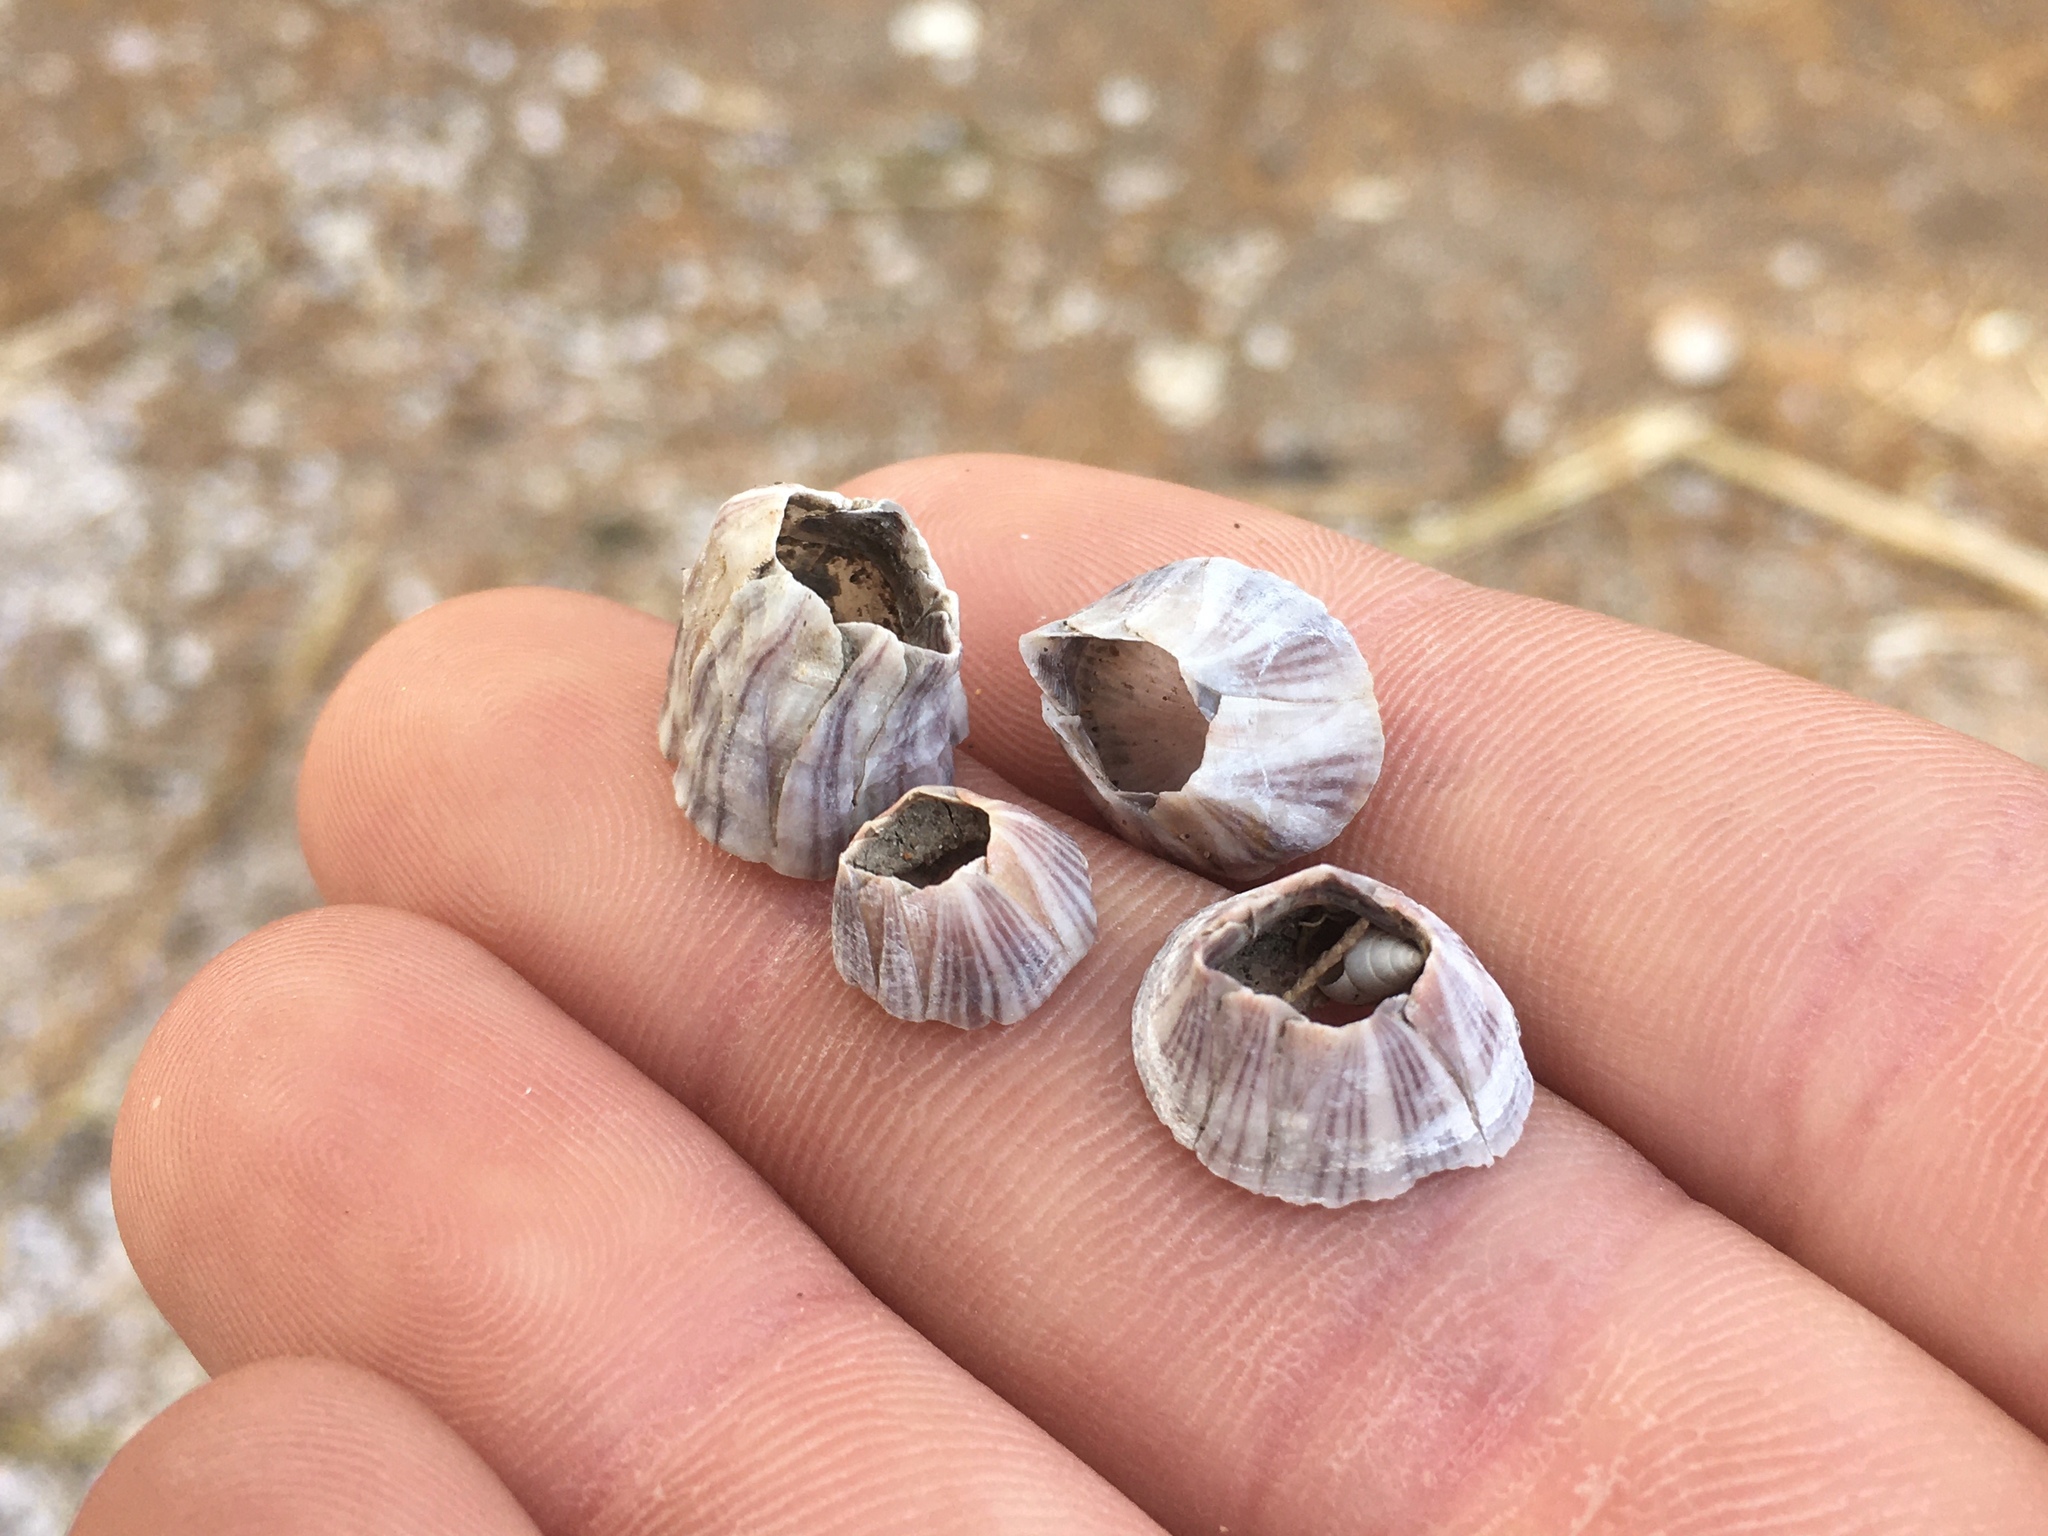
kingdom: Animalia
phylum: Arthropoda
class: Maxillopoda
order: Sessilia
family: Balanidae
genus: Amphibalanus
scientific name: Amphibalanus amphitrite
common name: Striped acorn barnacle
